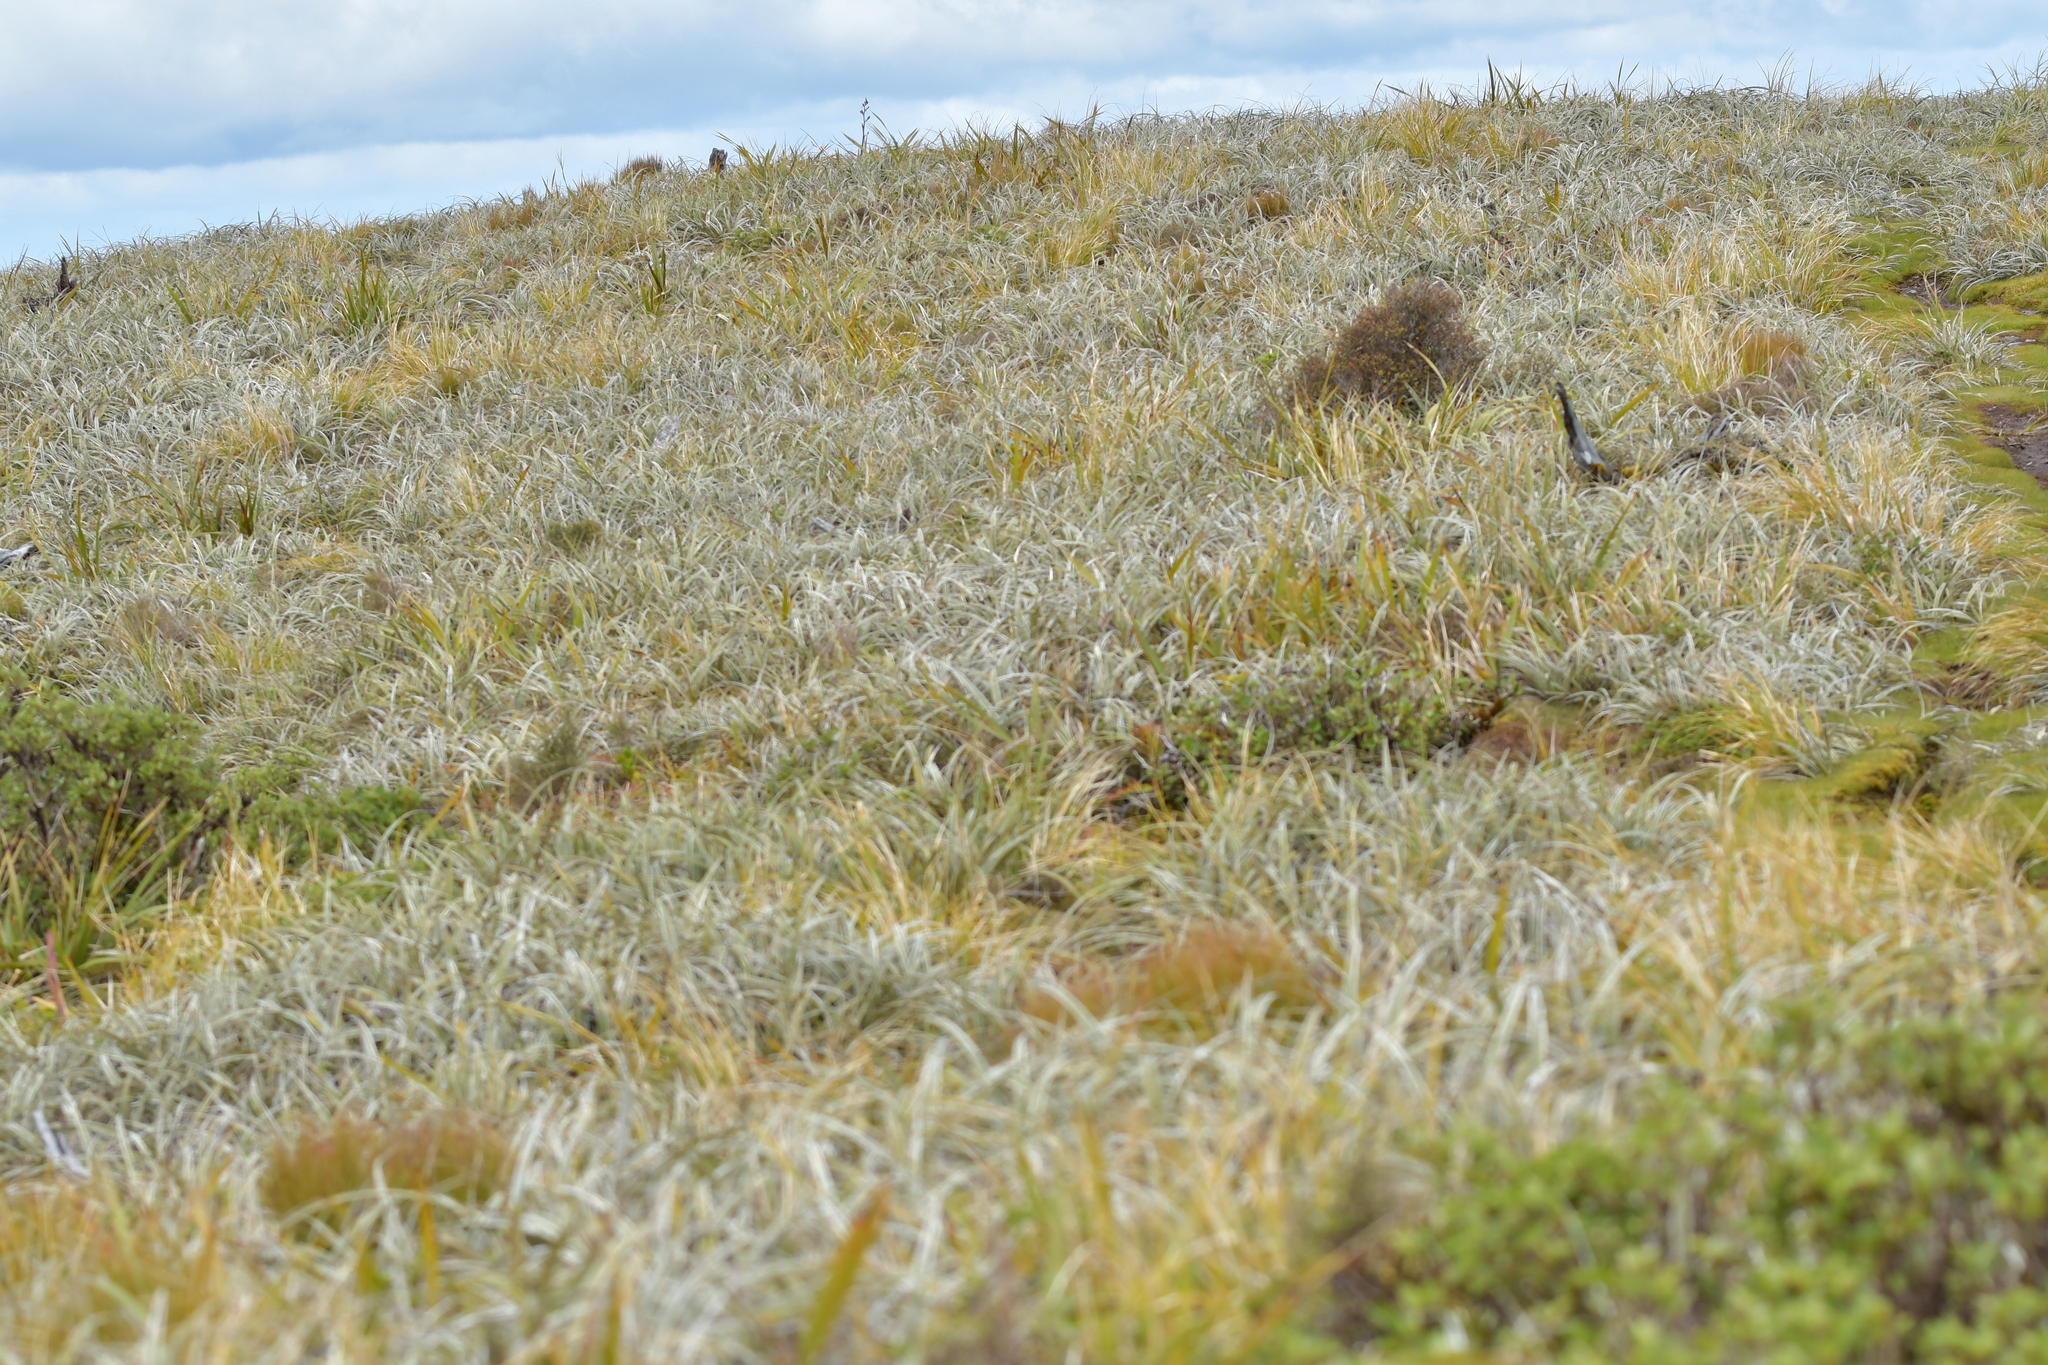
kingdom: Plantae
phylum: Tracheophyta
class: Liliopsida
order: Asparagales
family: Asteliaceae
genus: Astelia
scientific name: Astelia nervosa
